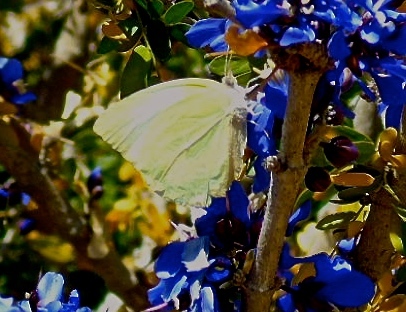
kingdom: Animalia
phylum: Arthropoda
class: Insecta
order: Lepidoptera
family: Pieridae
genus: Kricogonia
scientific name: Kricogonia lyside
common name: Guayacan sulphur,
